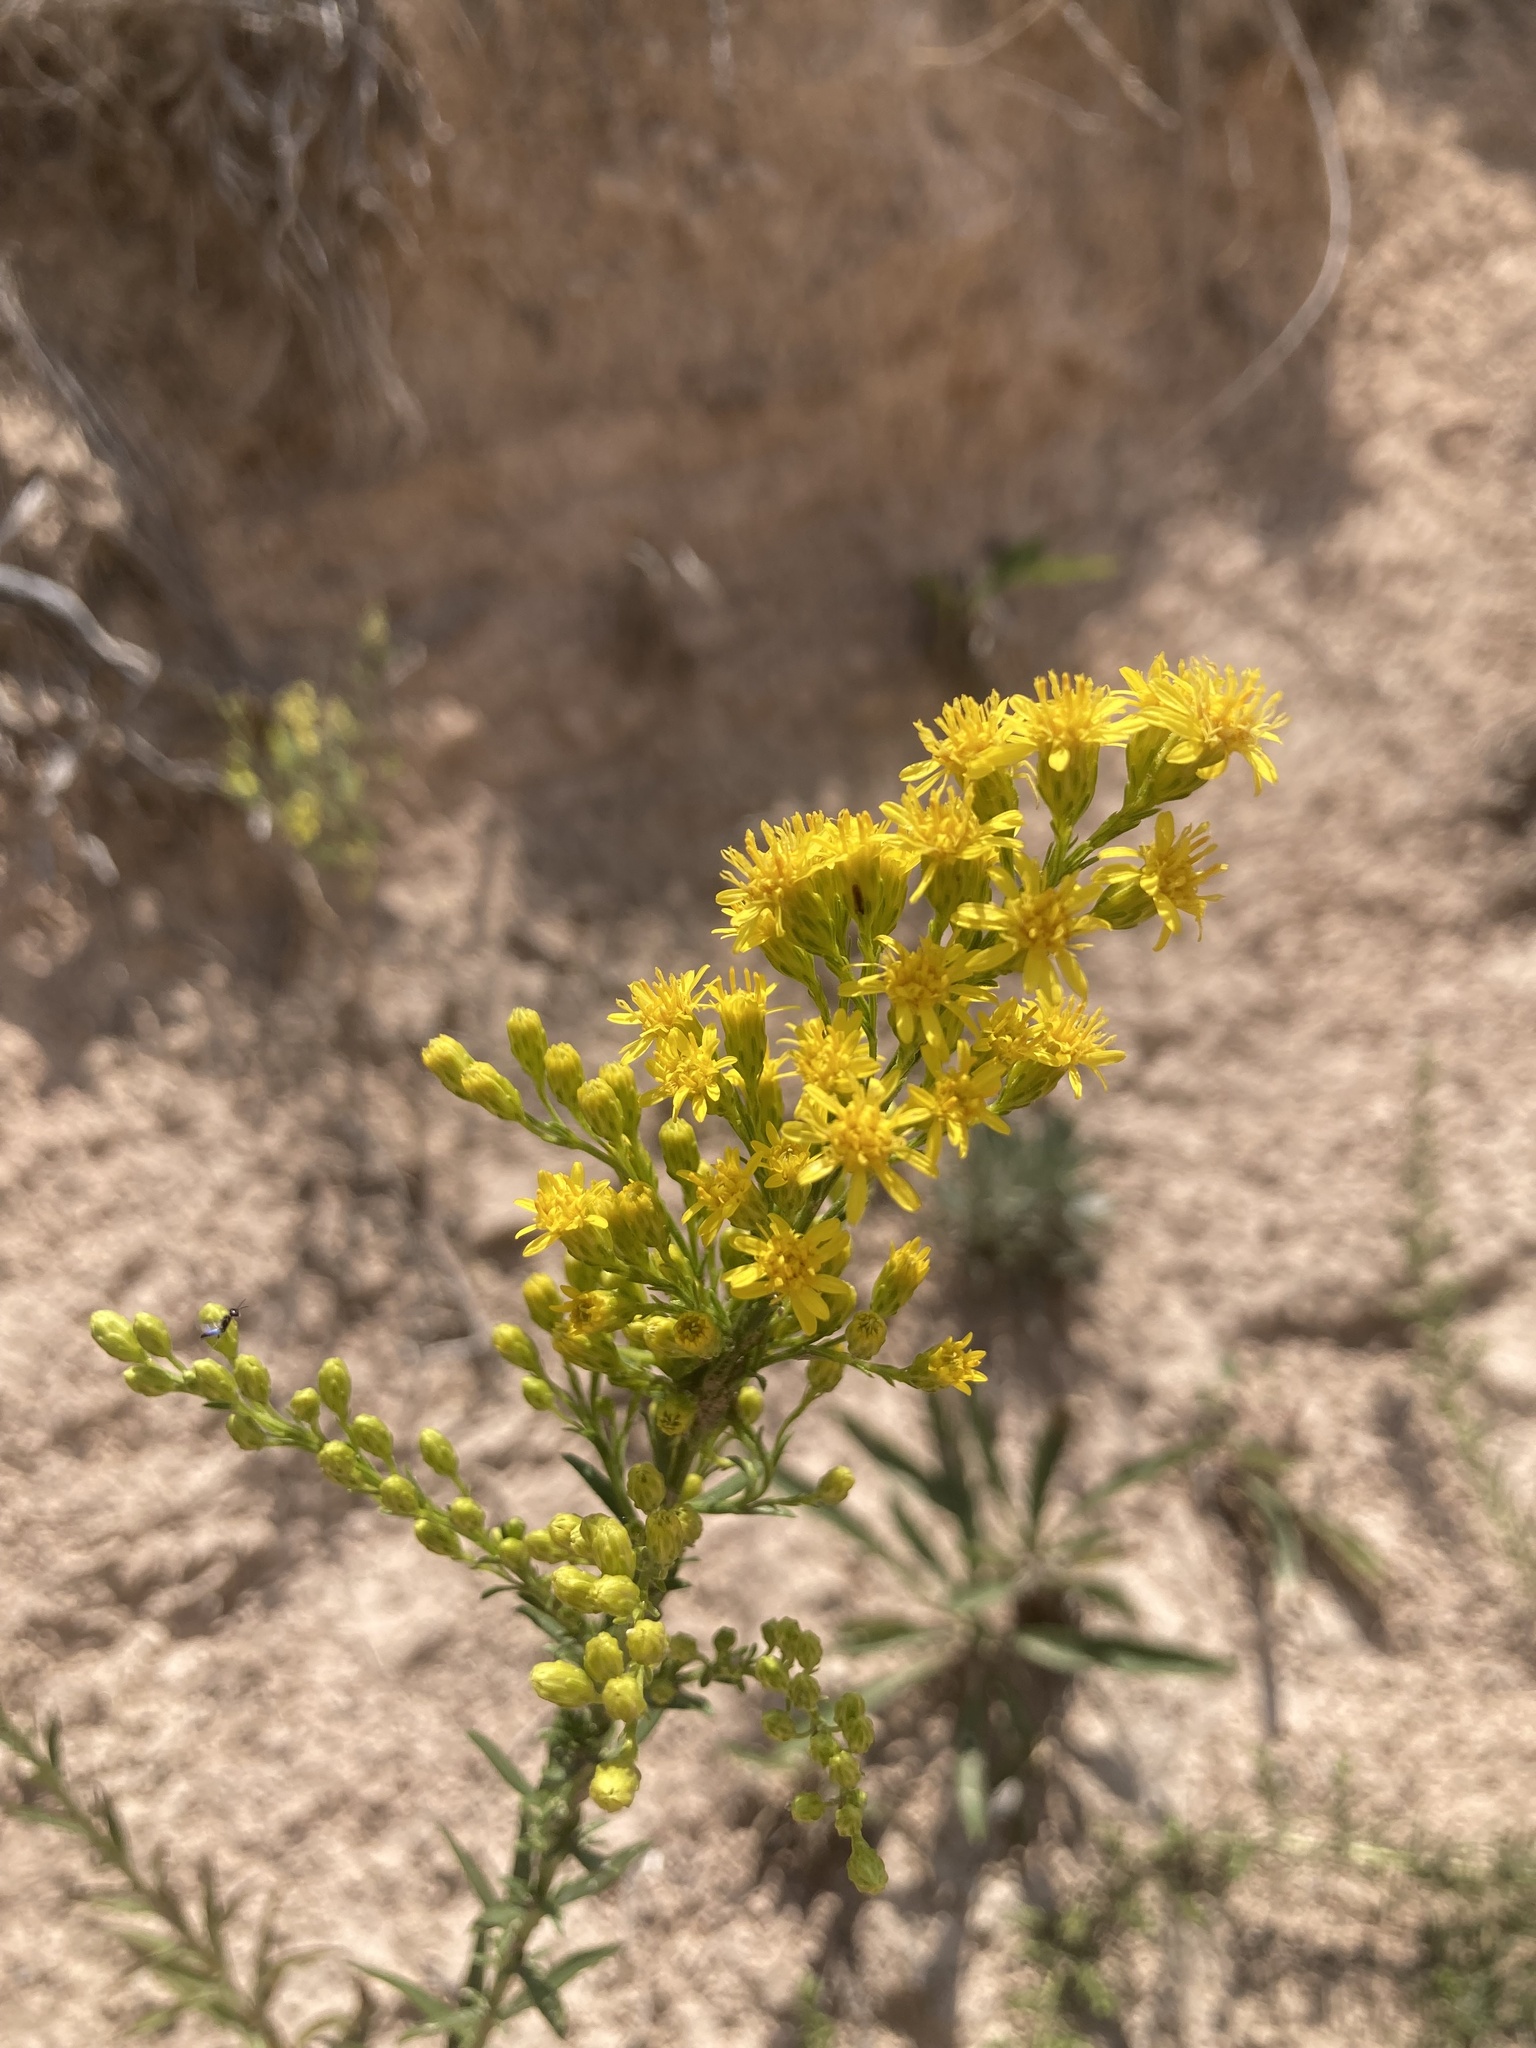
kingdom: Plantae
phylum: Tracheophyta
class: Magnoliopsida
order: Asterales
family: Asteraceae
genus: Solidago
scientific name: Solidago missouriensis
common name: Prairie goldenrod
